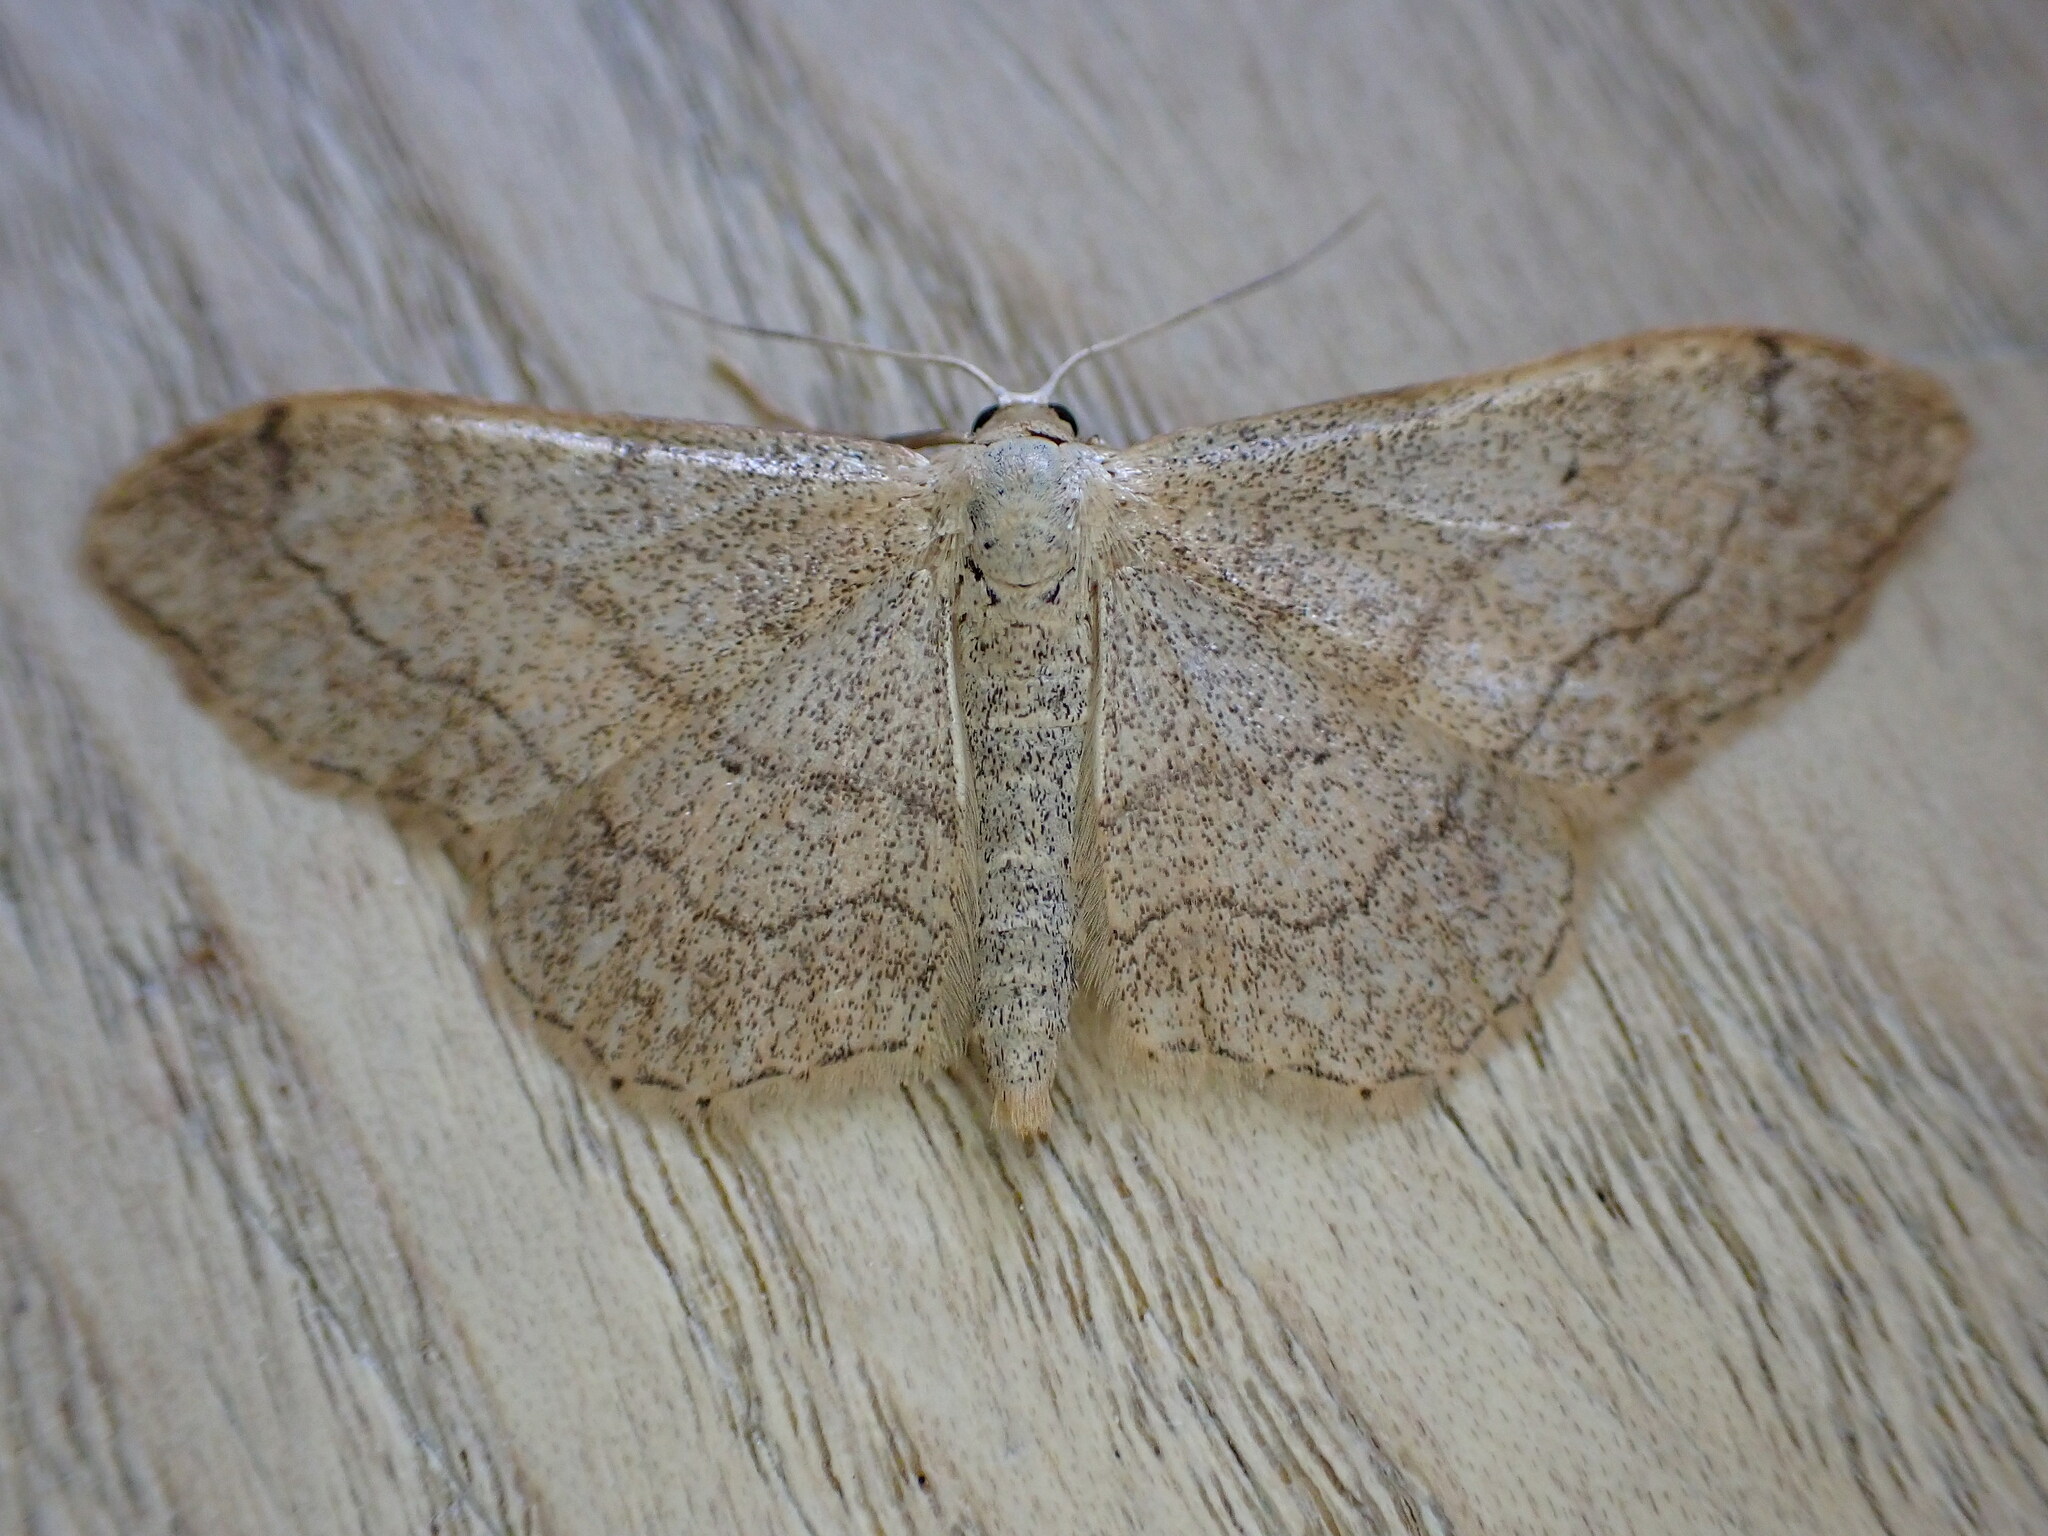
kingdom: Animalia
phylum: Arthropoda
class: Insecta
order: Lepidoptera
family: Geometridae
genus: Idaea
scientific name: Idaea aversata
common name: Riband wave
